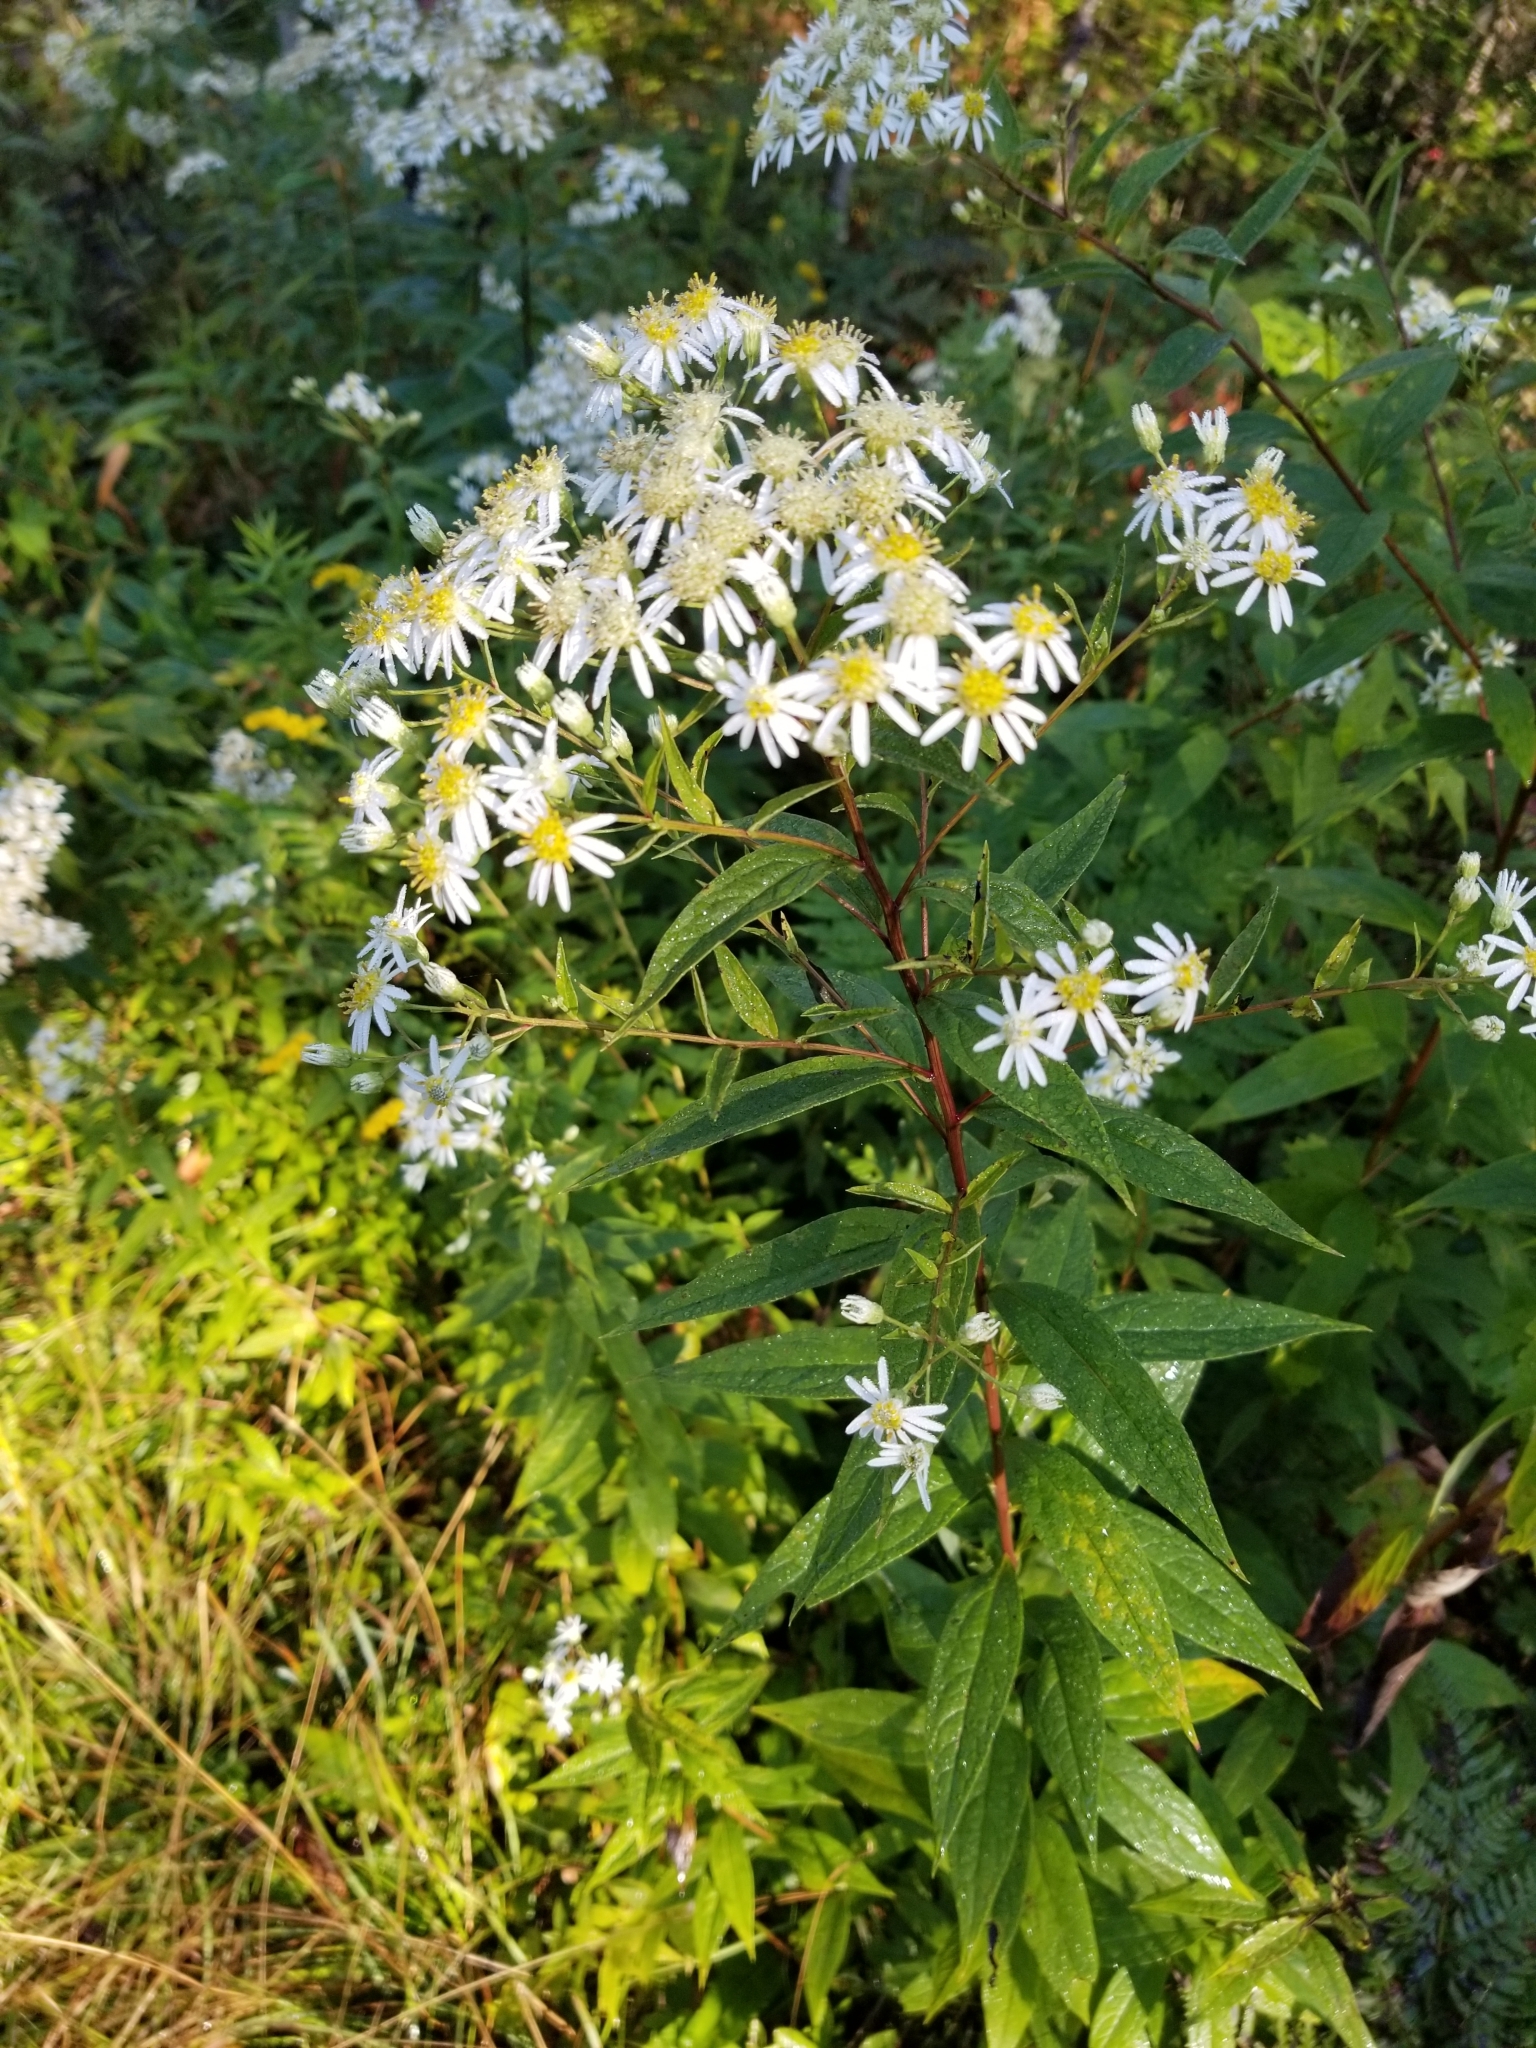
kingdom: Plantae
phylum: Tracheophyta
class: Magnoliopsida
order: Asterales
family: Asteraceae
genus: Doellingeria
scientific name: Doellingeria umbellata
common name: Flat-top white aster
